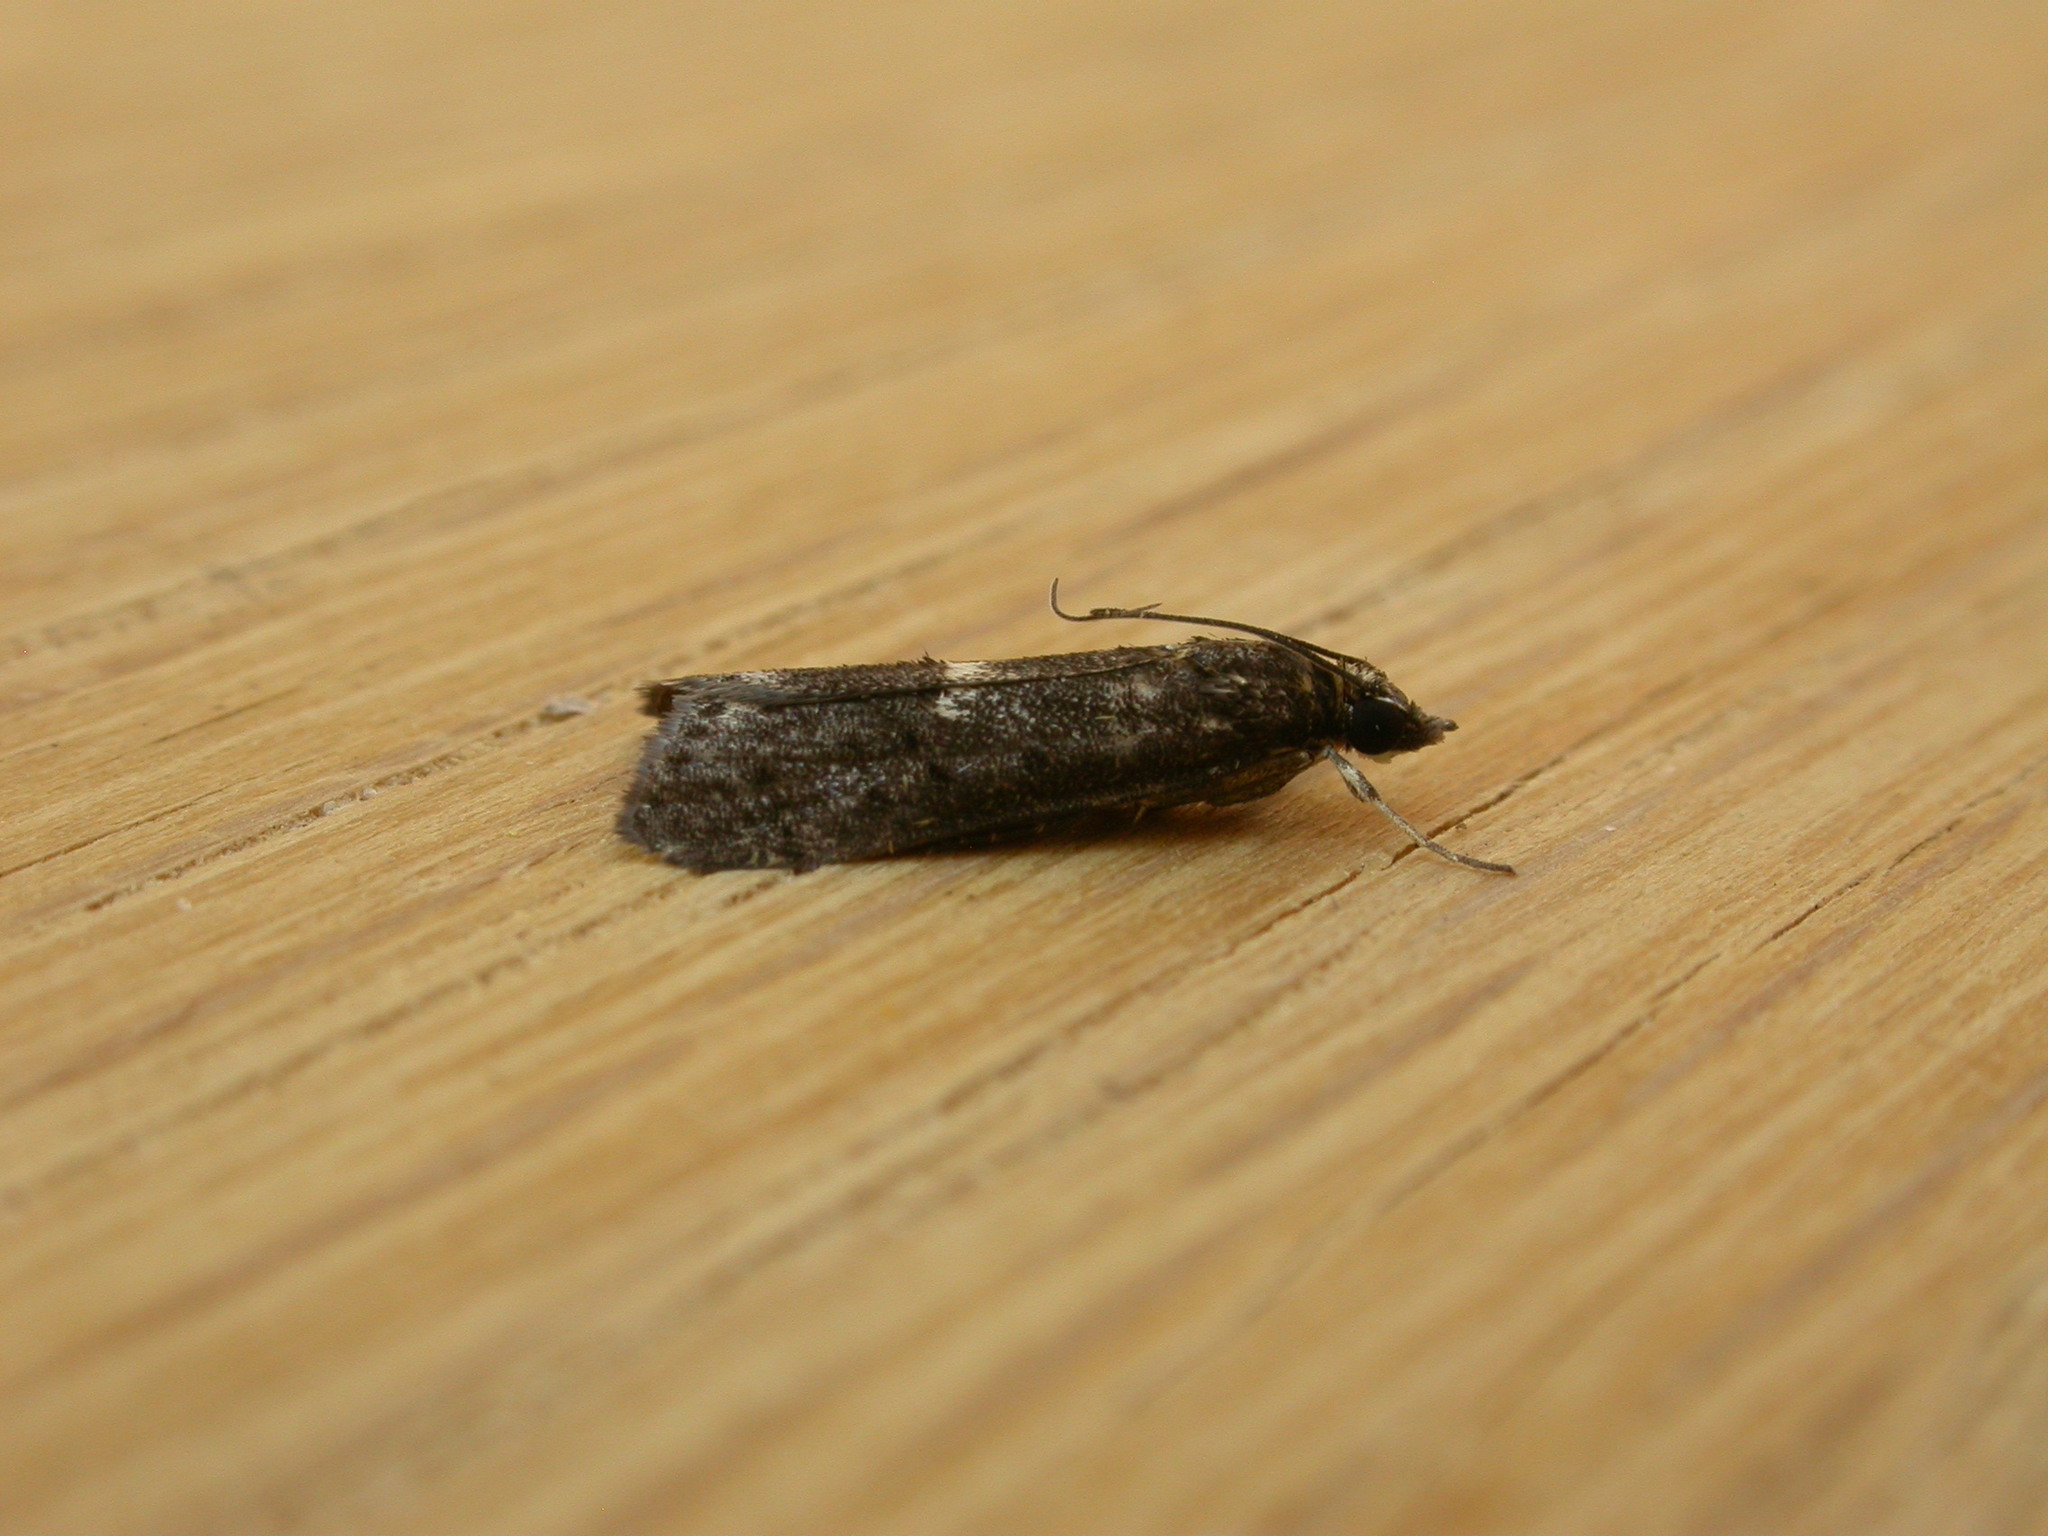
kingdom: Animalia
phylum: Arthropoda
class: Insecta
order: Lepidoptera
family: Crambidae
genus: Eclipsiodes
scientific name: Eclipsiodes homora
